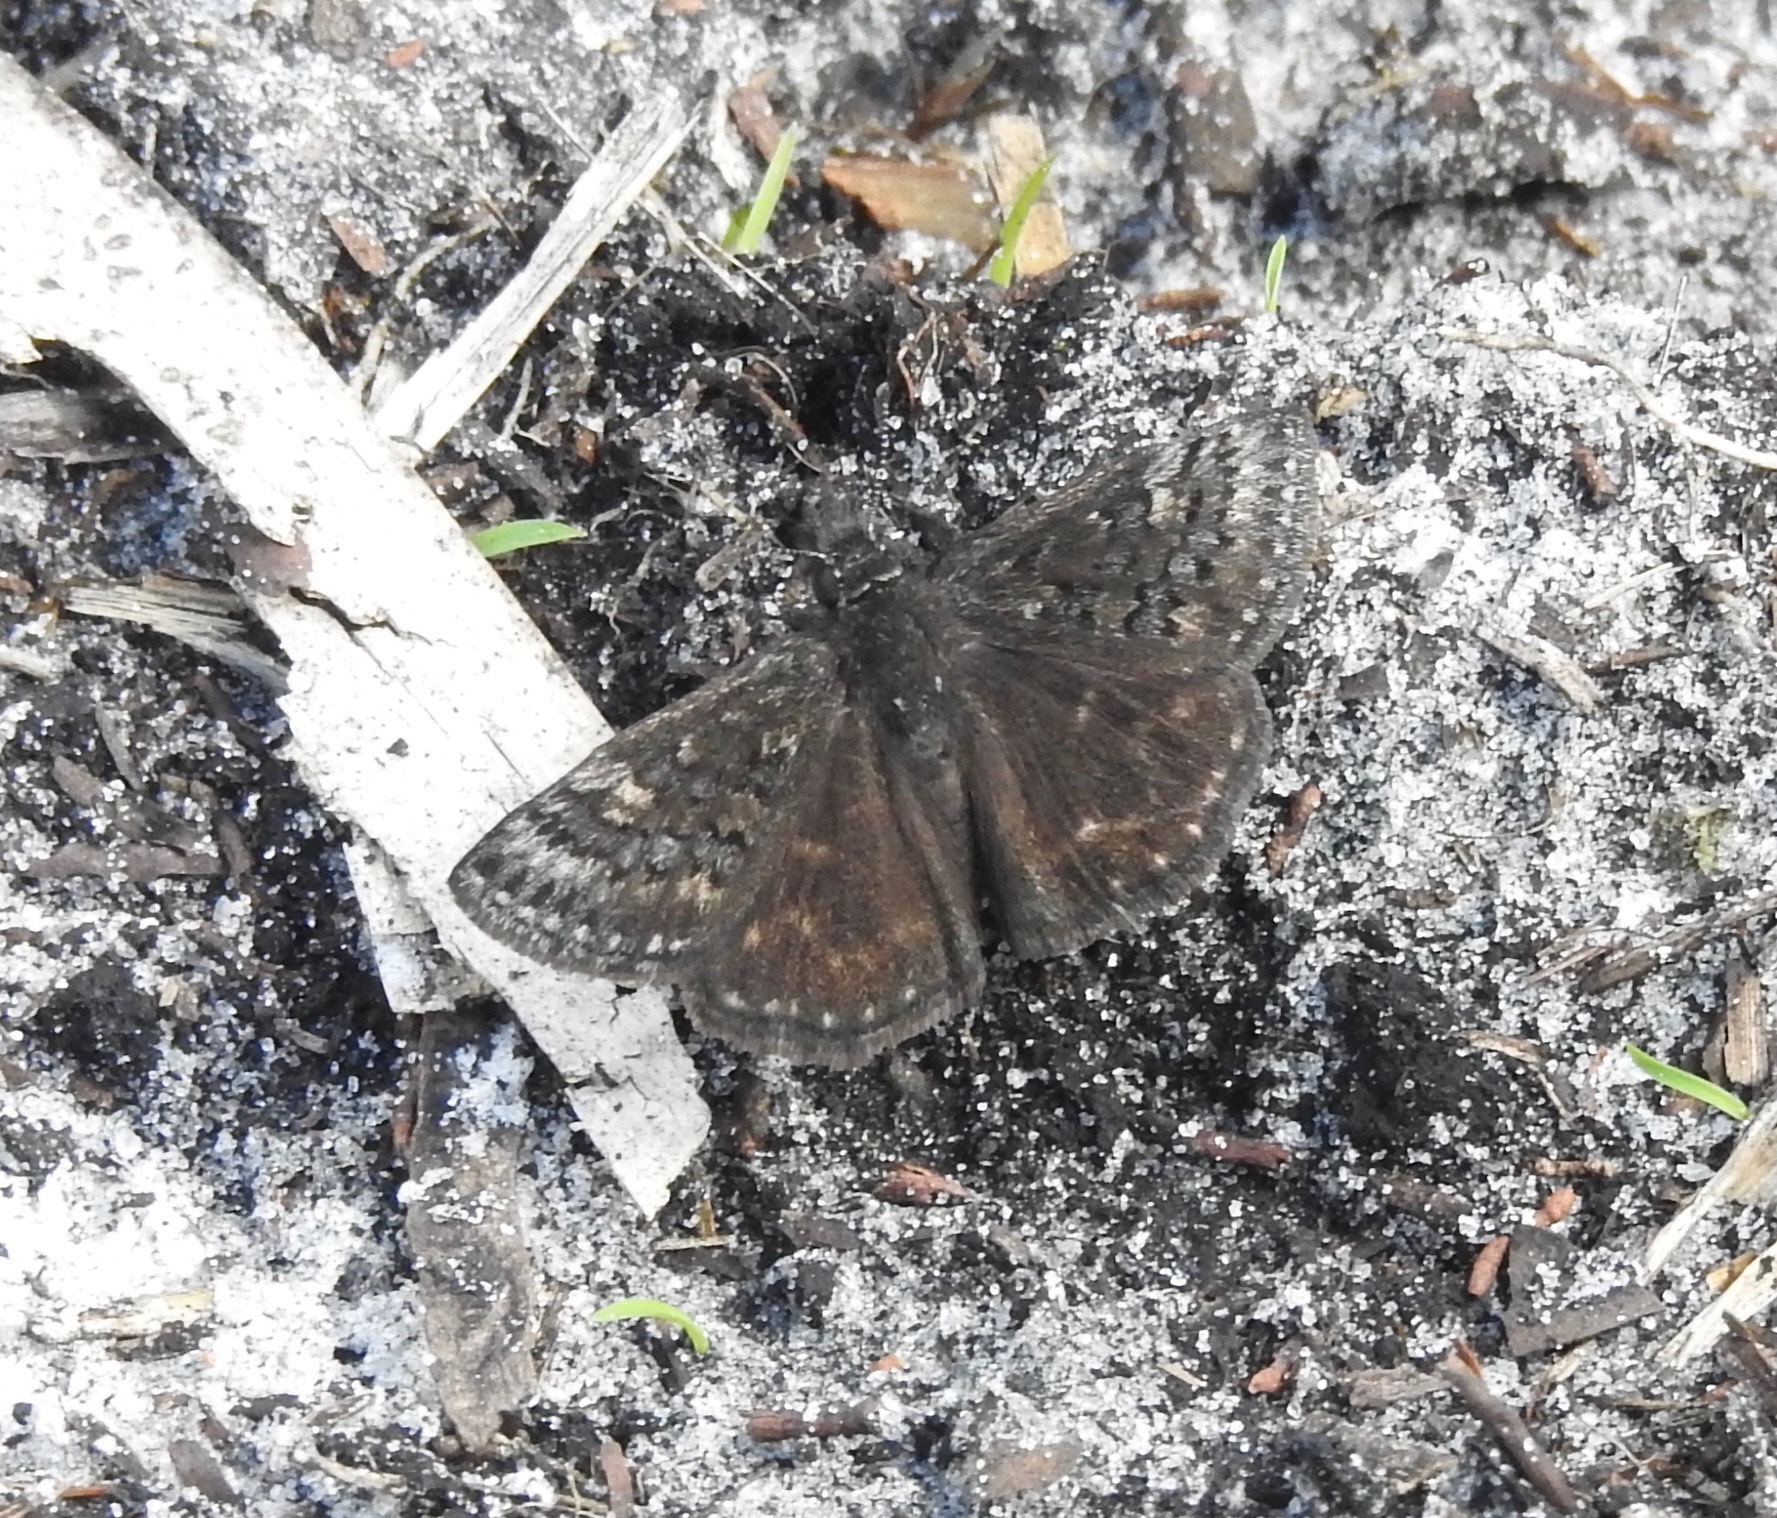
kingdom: Animalia
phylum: Arthropoda
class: Insecta
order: Lepidoptera
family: Hesperiidae
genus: Erynnis
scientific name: Erynnis brizo
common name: Sleepy duskywing
